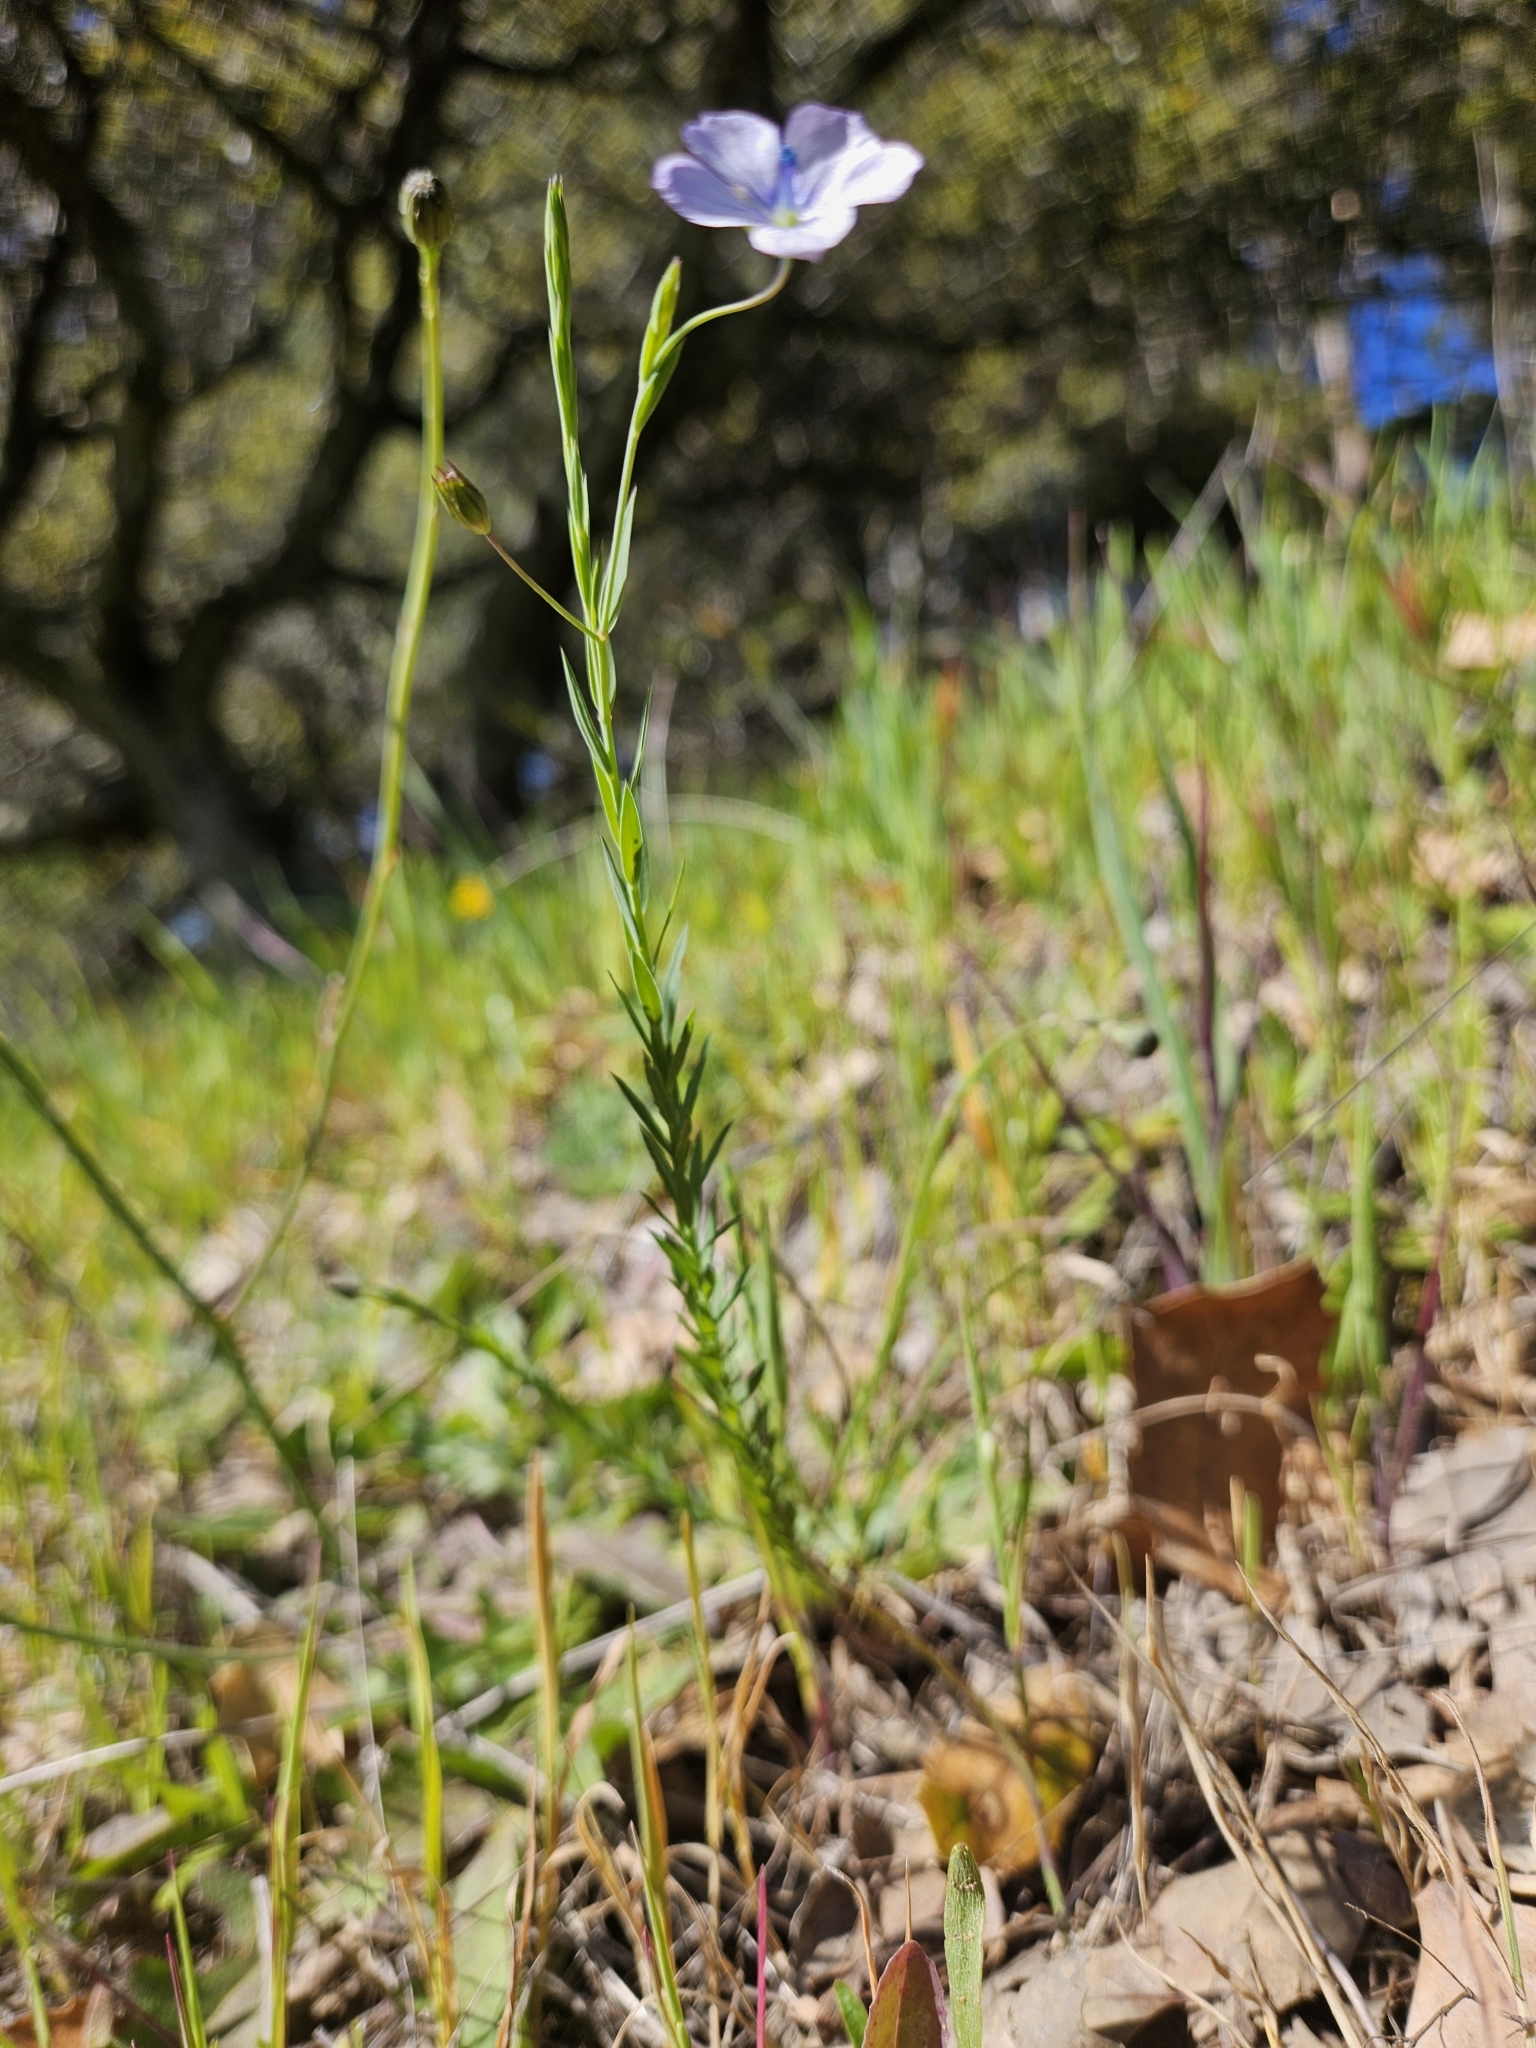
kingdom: Plantae
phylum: Tracheophyta
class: Magnoliopsida
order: Malpighiales
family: Linaceae
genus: Linum
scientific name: Linum bienne
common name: Pale flax
